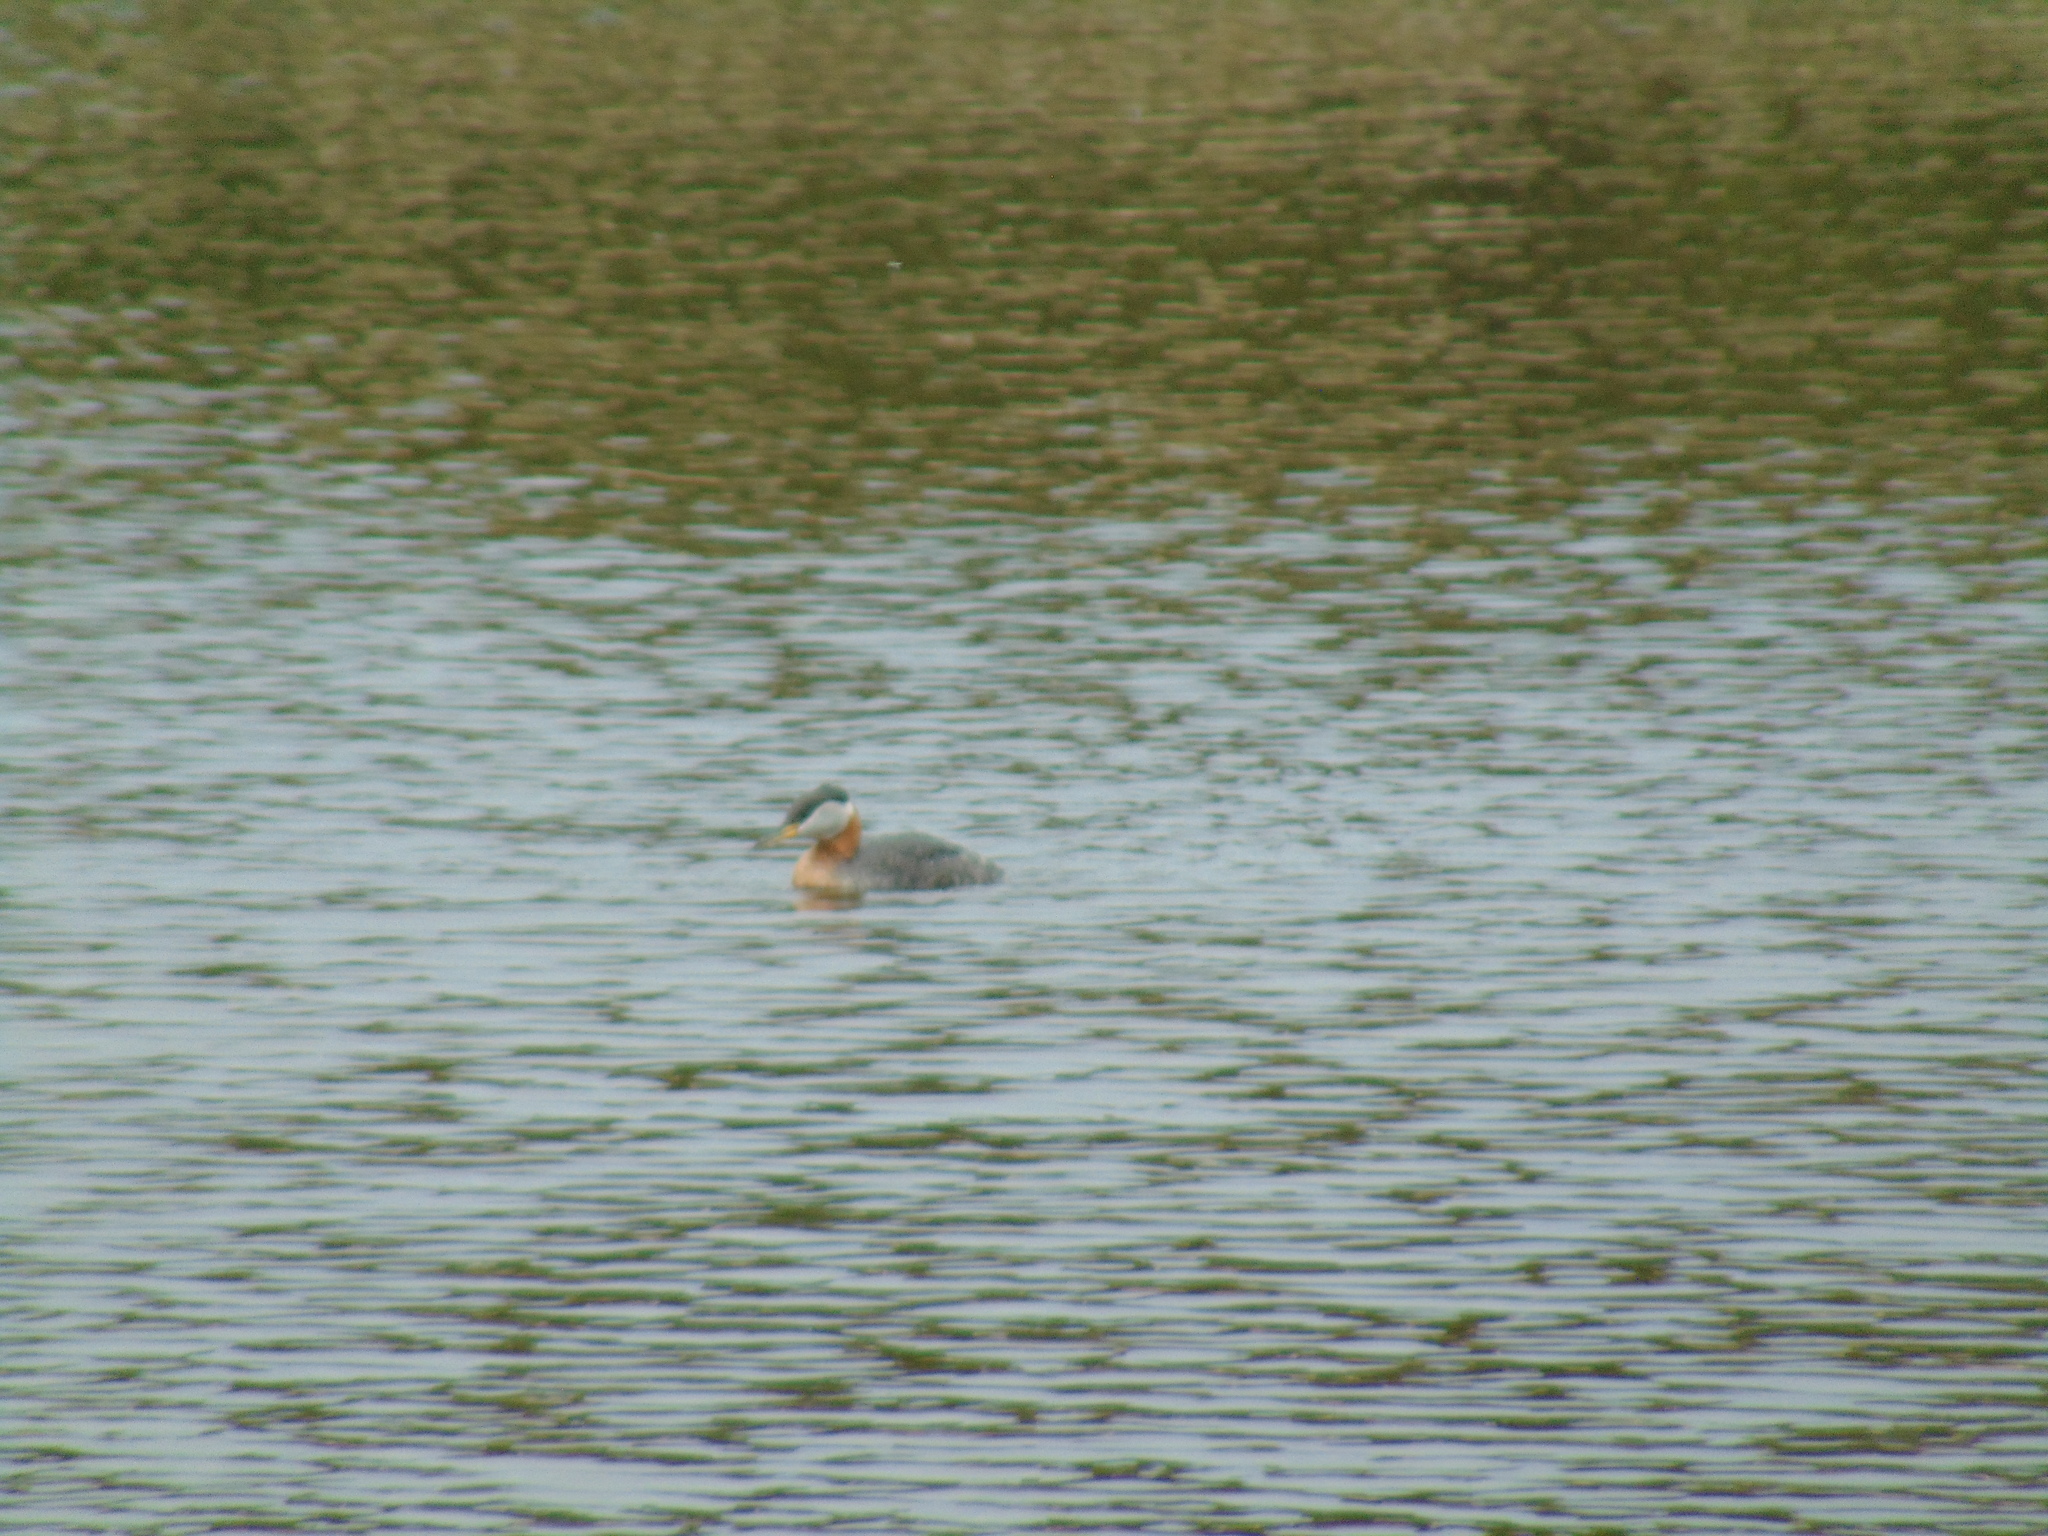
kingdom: Animalia
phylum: Chordata
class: Aves
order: Podicipediformes
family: Podicipedidae
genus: Podiceps
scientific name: Podiceps grisegena
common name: Red-necked grebe
